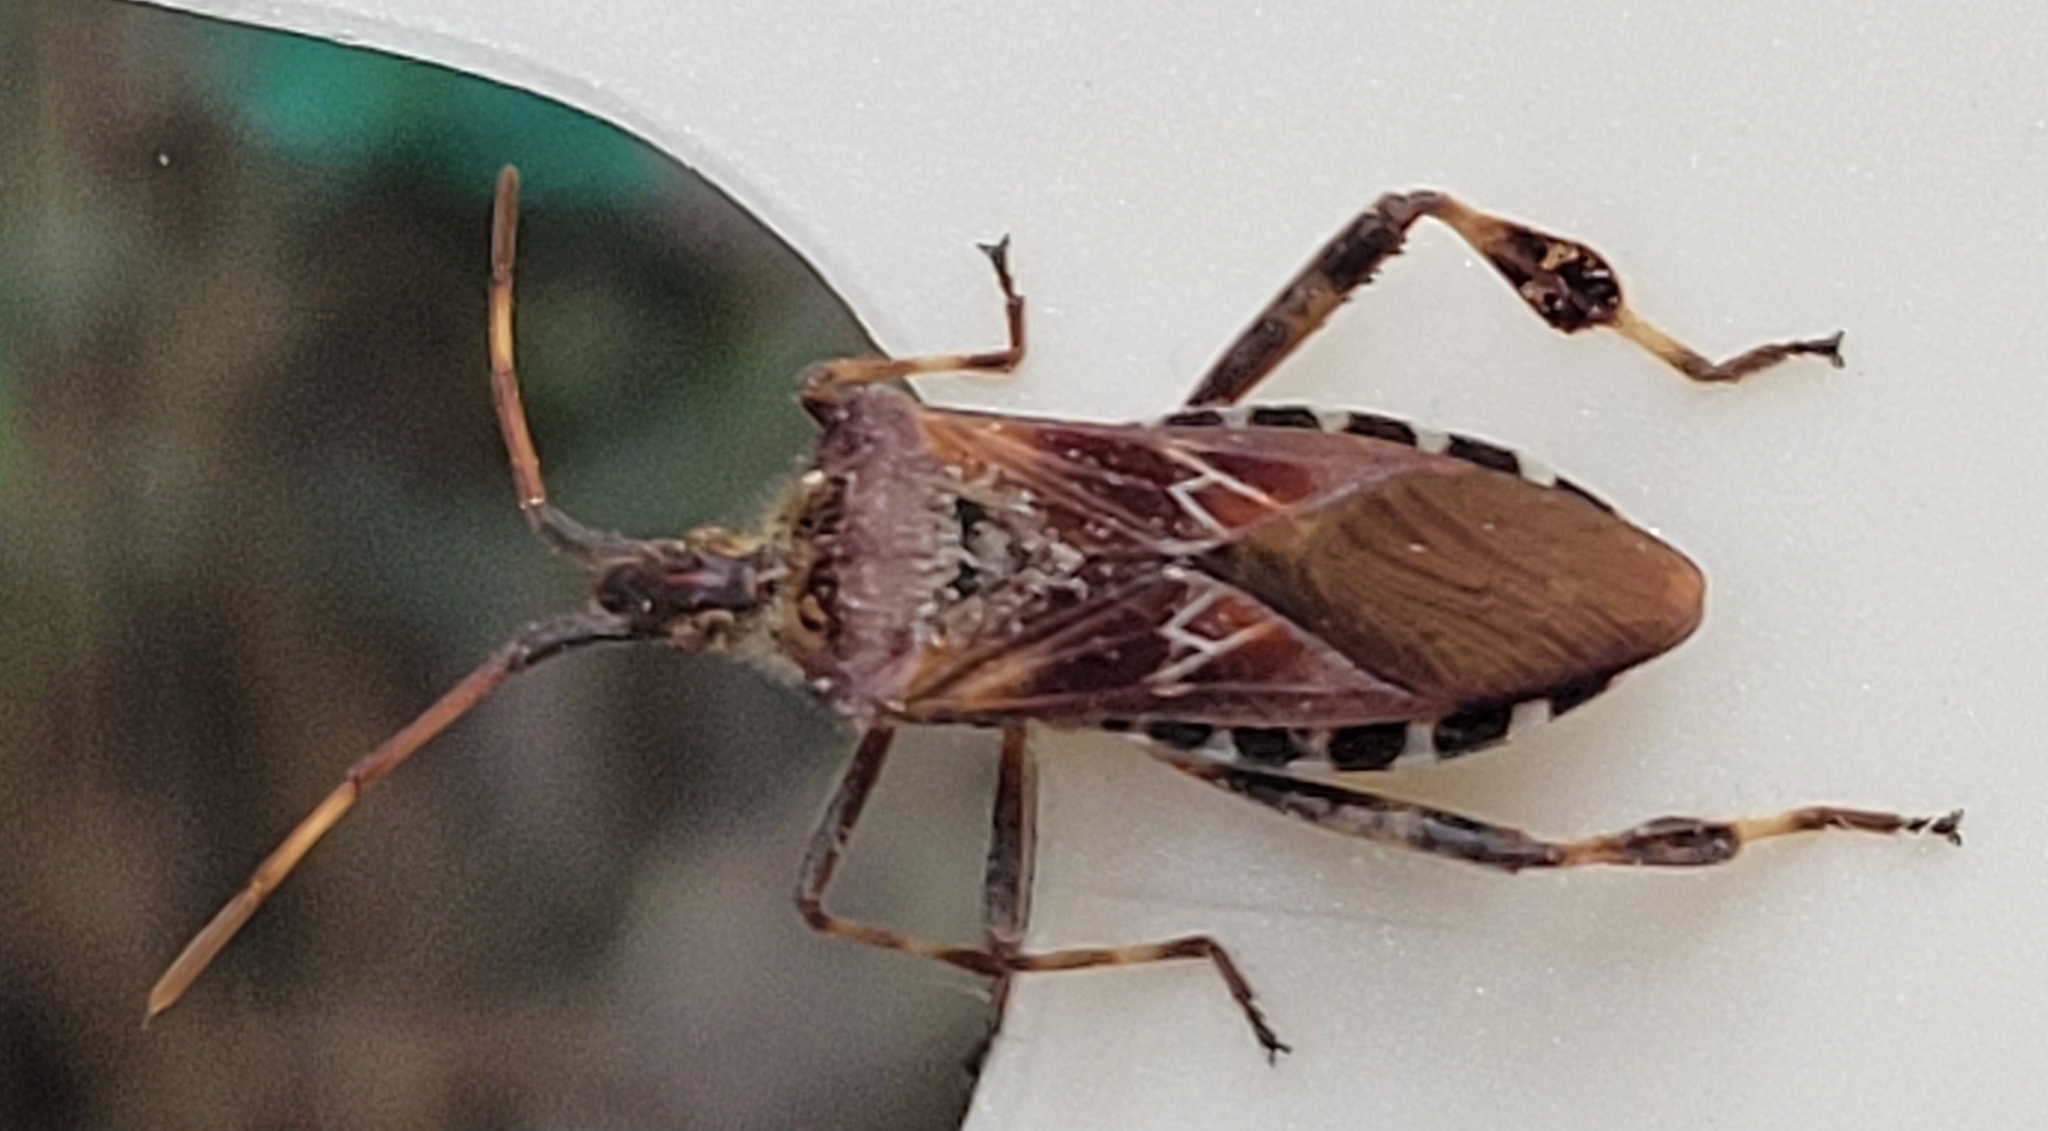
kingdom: Animalia
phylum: Arthropoda
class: Insecta
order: Hemiptera
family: Coreidae
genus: Leptoglossus
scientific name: Leptoglossus occidentalis
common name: Western conifer-seed bug
